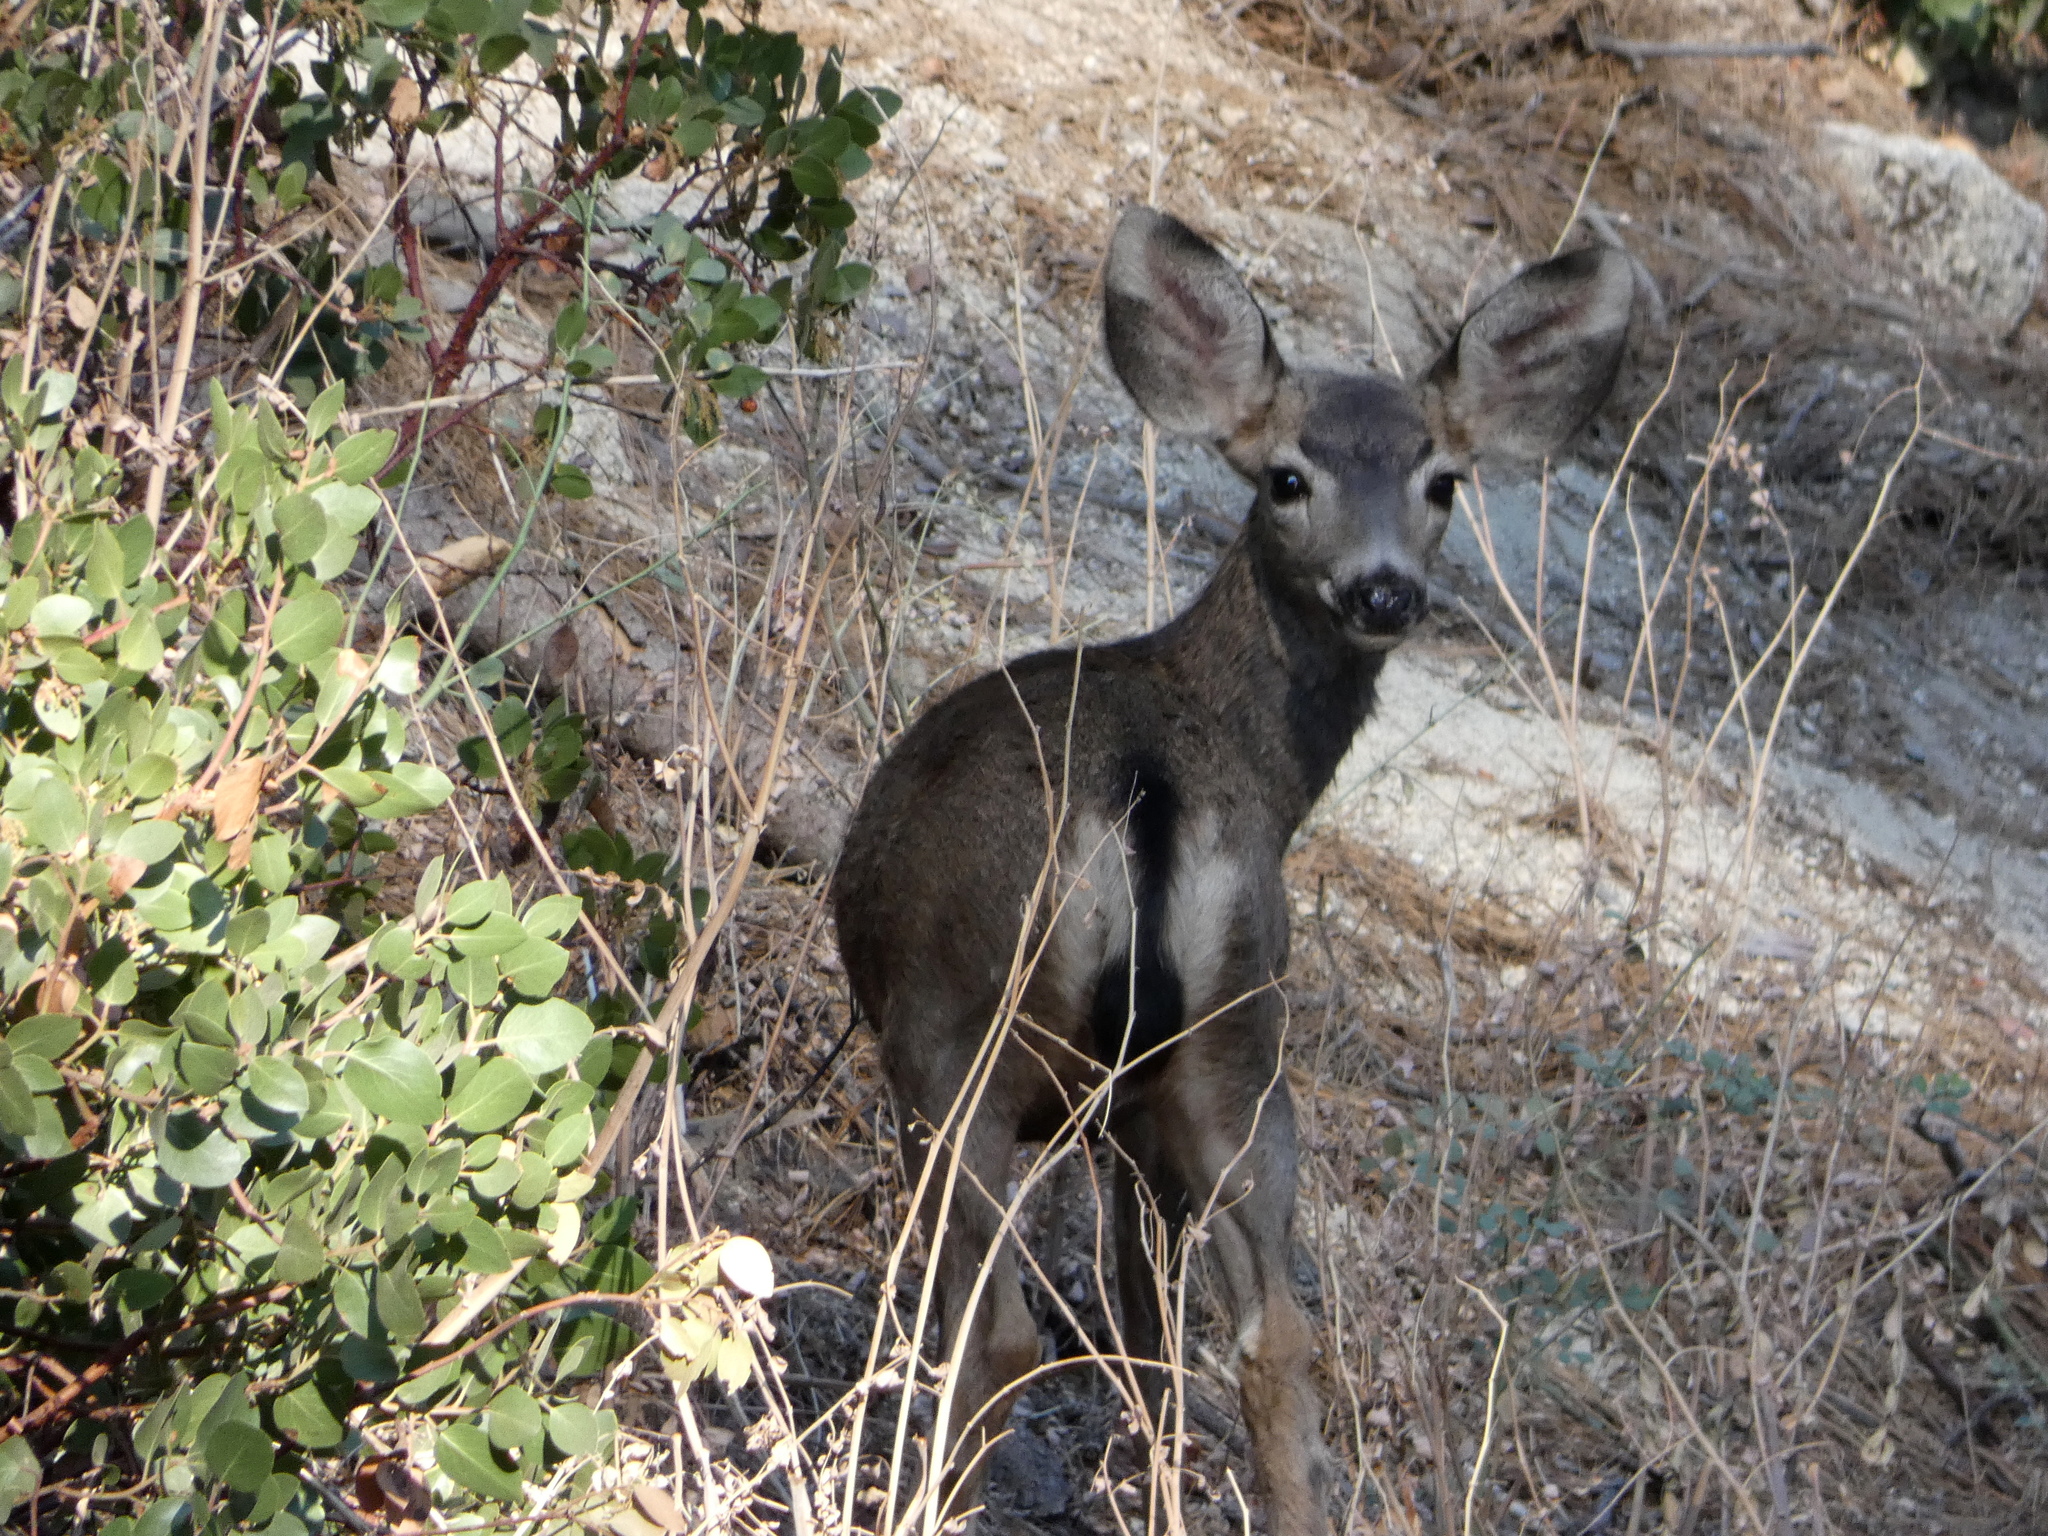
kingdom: Animalia
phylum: Chordata
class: Mammalia
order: Artiodactyla
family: Cervidae
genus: Odocoileus
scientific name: Odocoileus hemionus
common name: Mule deer
